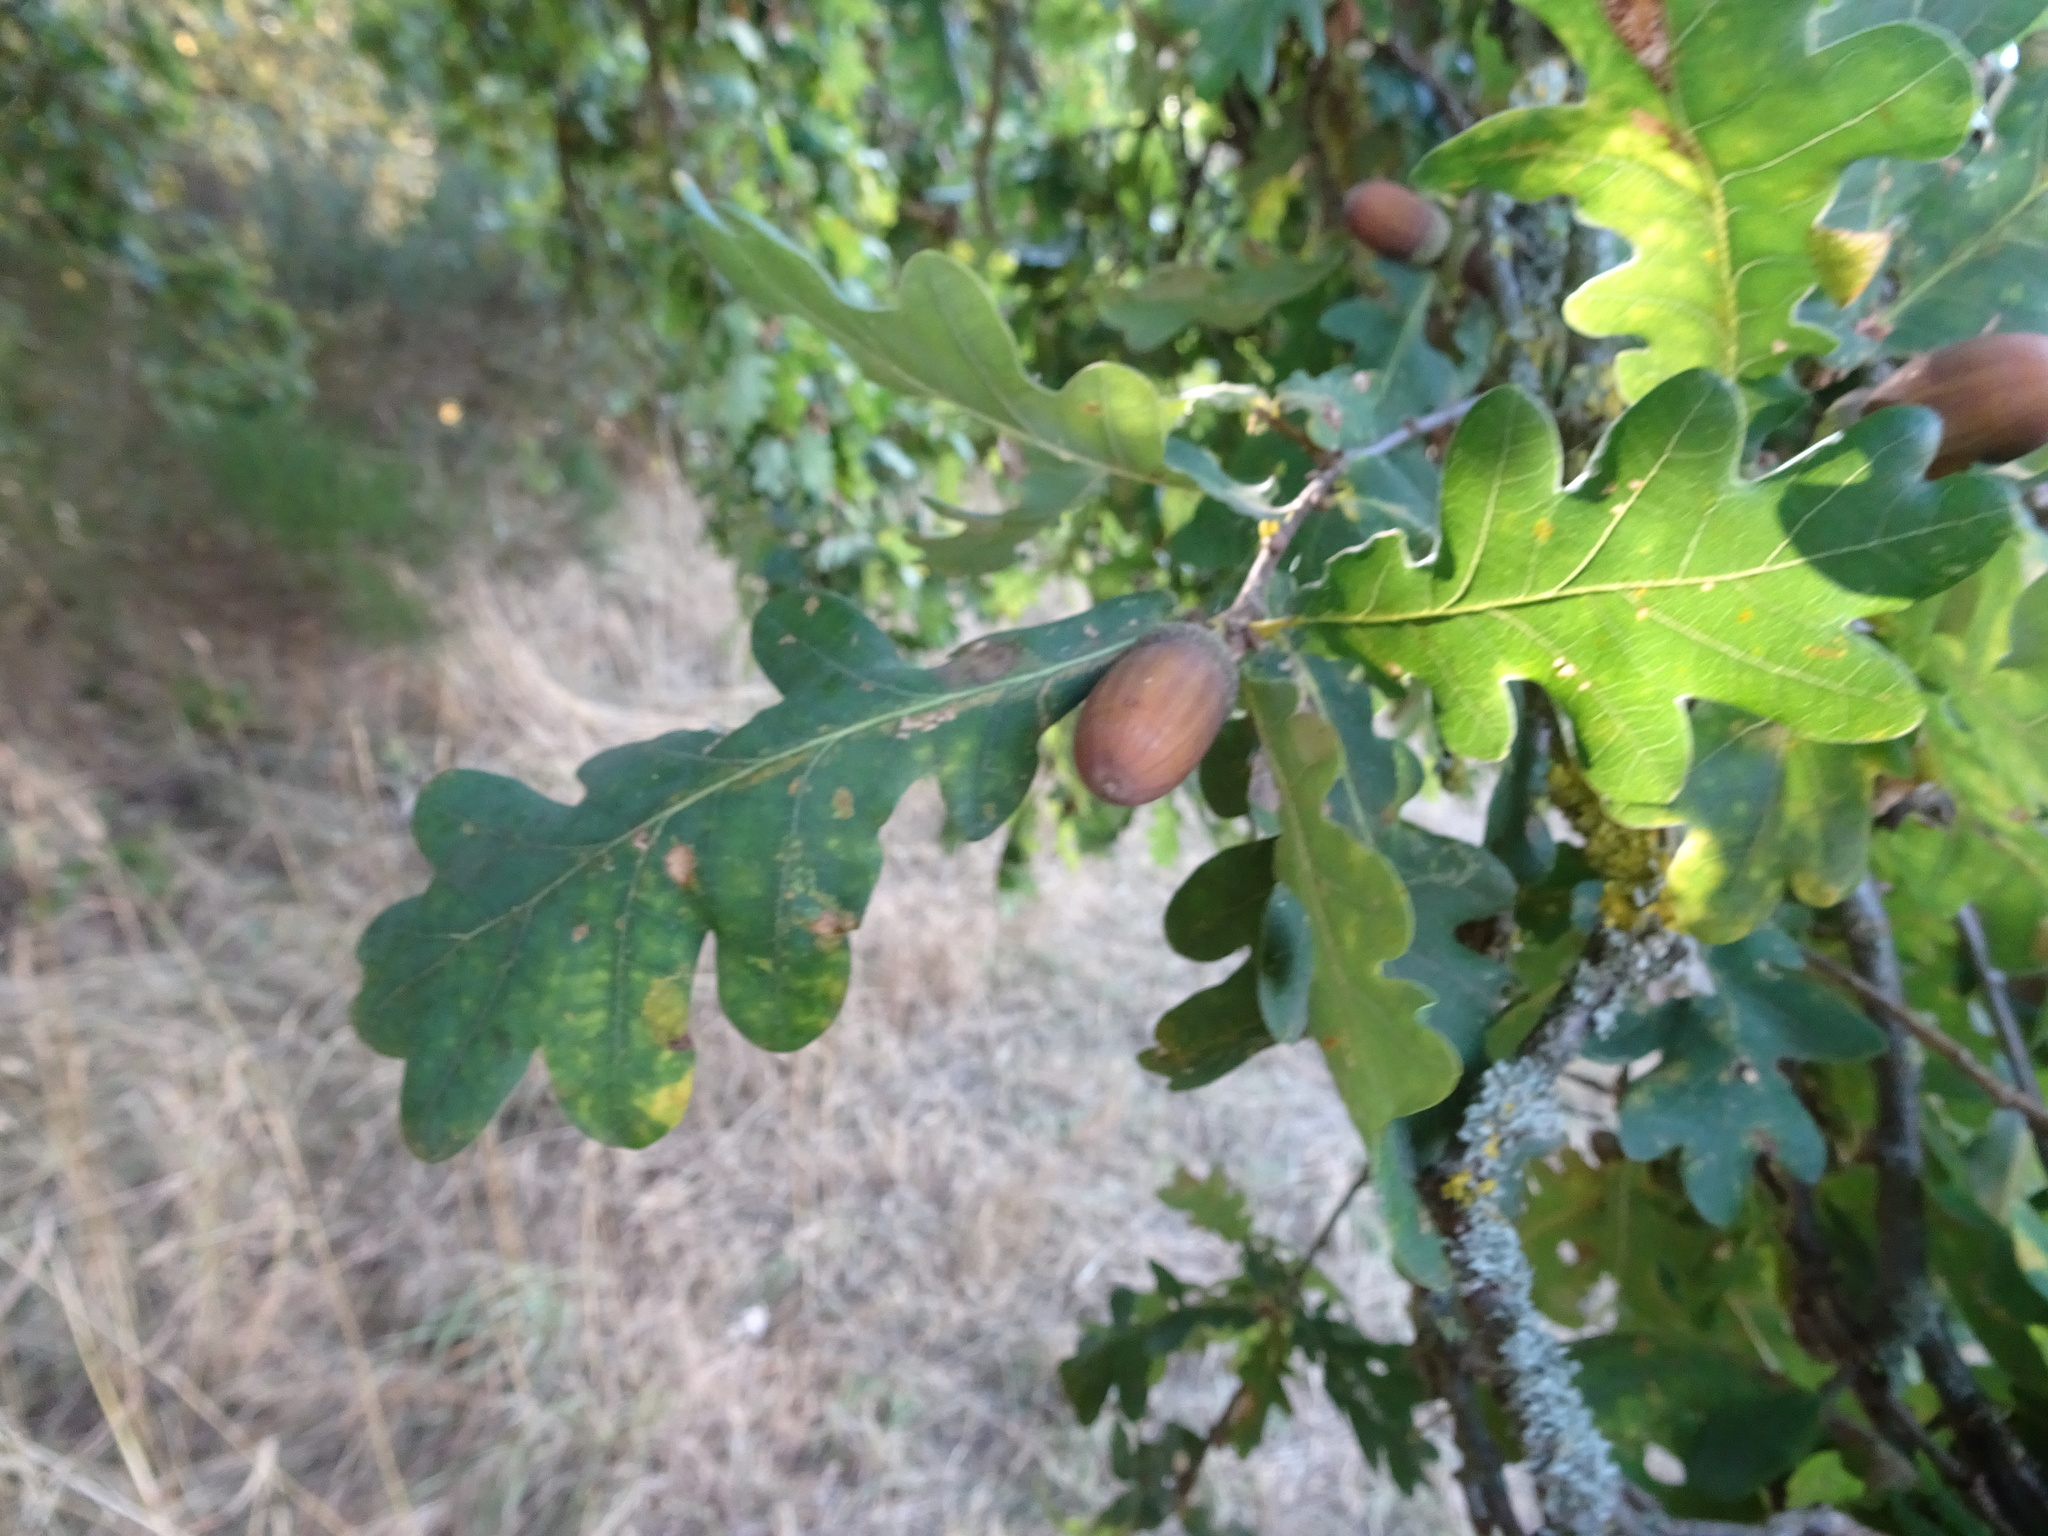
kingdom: Plantae
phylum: Tracheophyta
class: Magnoliopsida
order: Fagales
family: Fagaceae
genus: Quercus
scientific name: Quercus robur
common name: Pedunculate oak
